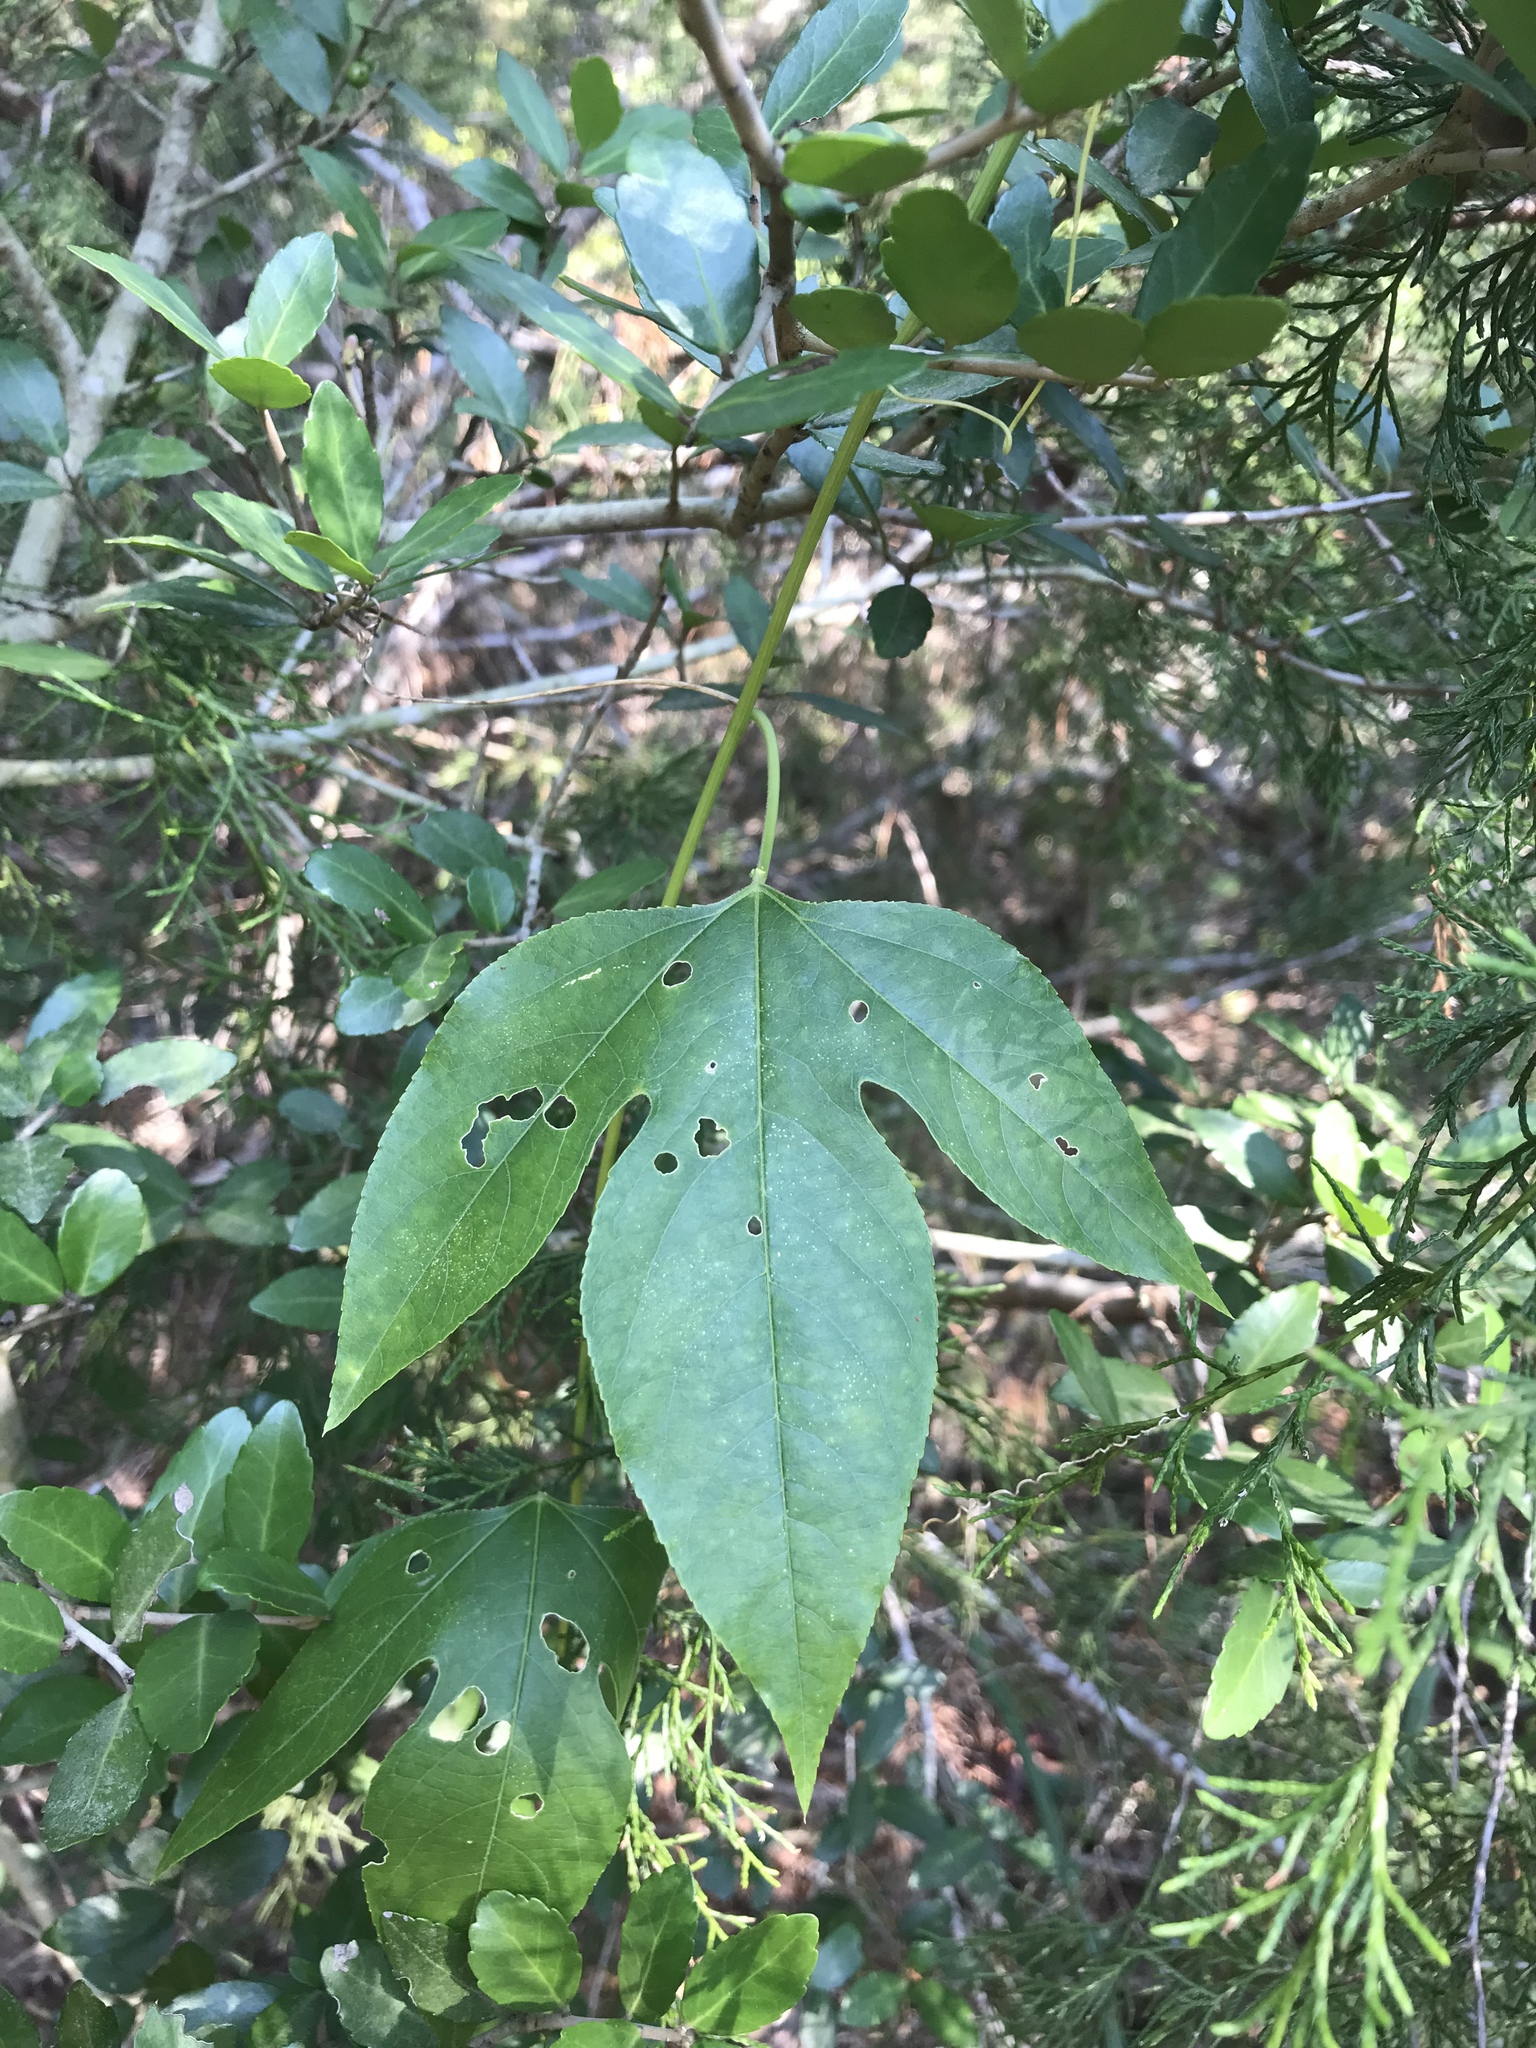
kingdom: Plantae
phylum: Tracheophyta
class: Magnoliopsida
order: Malpighiales
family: Passifloraceae
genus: Passiflora
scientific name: Passiflora incarnata
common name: Apricot-vine
